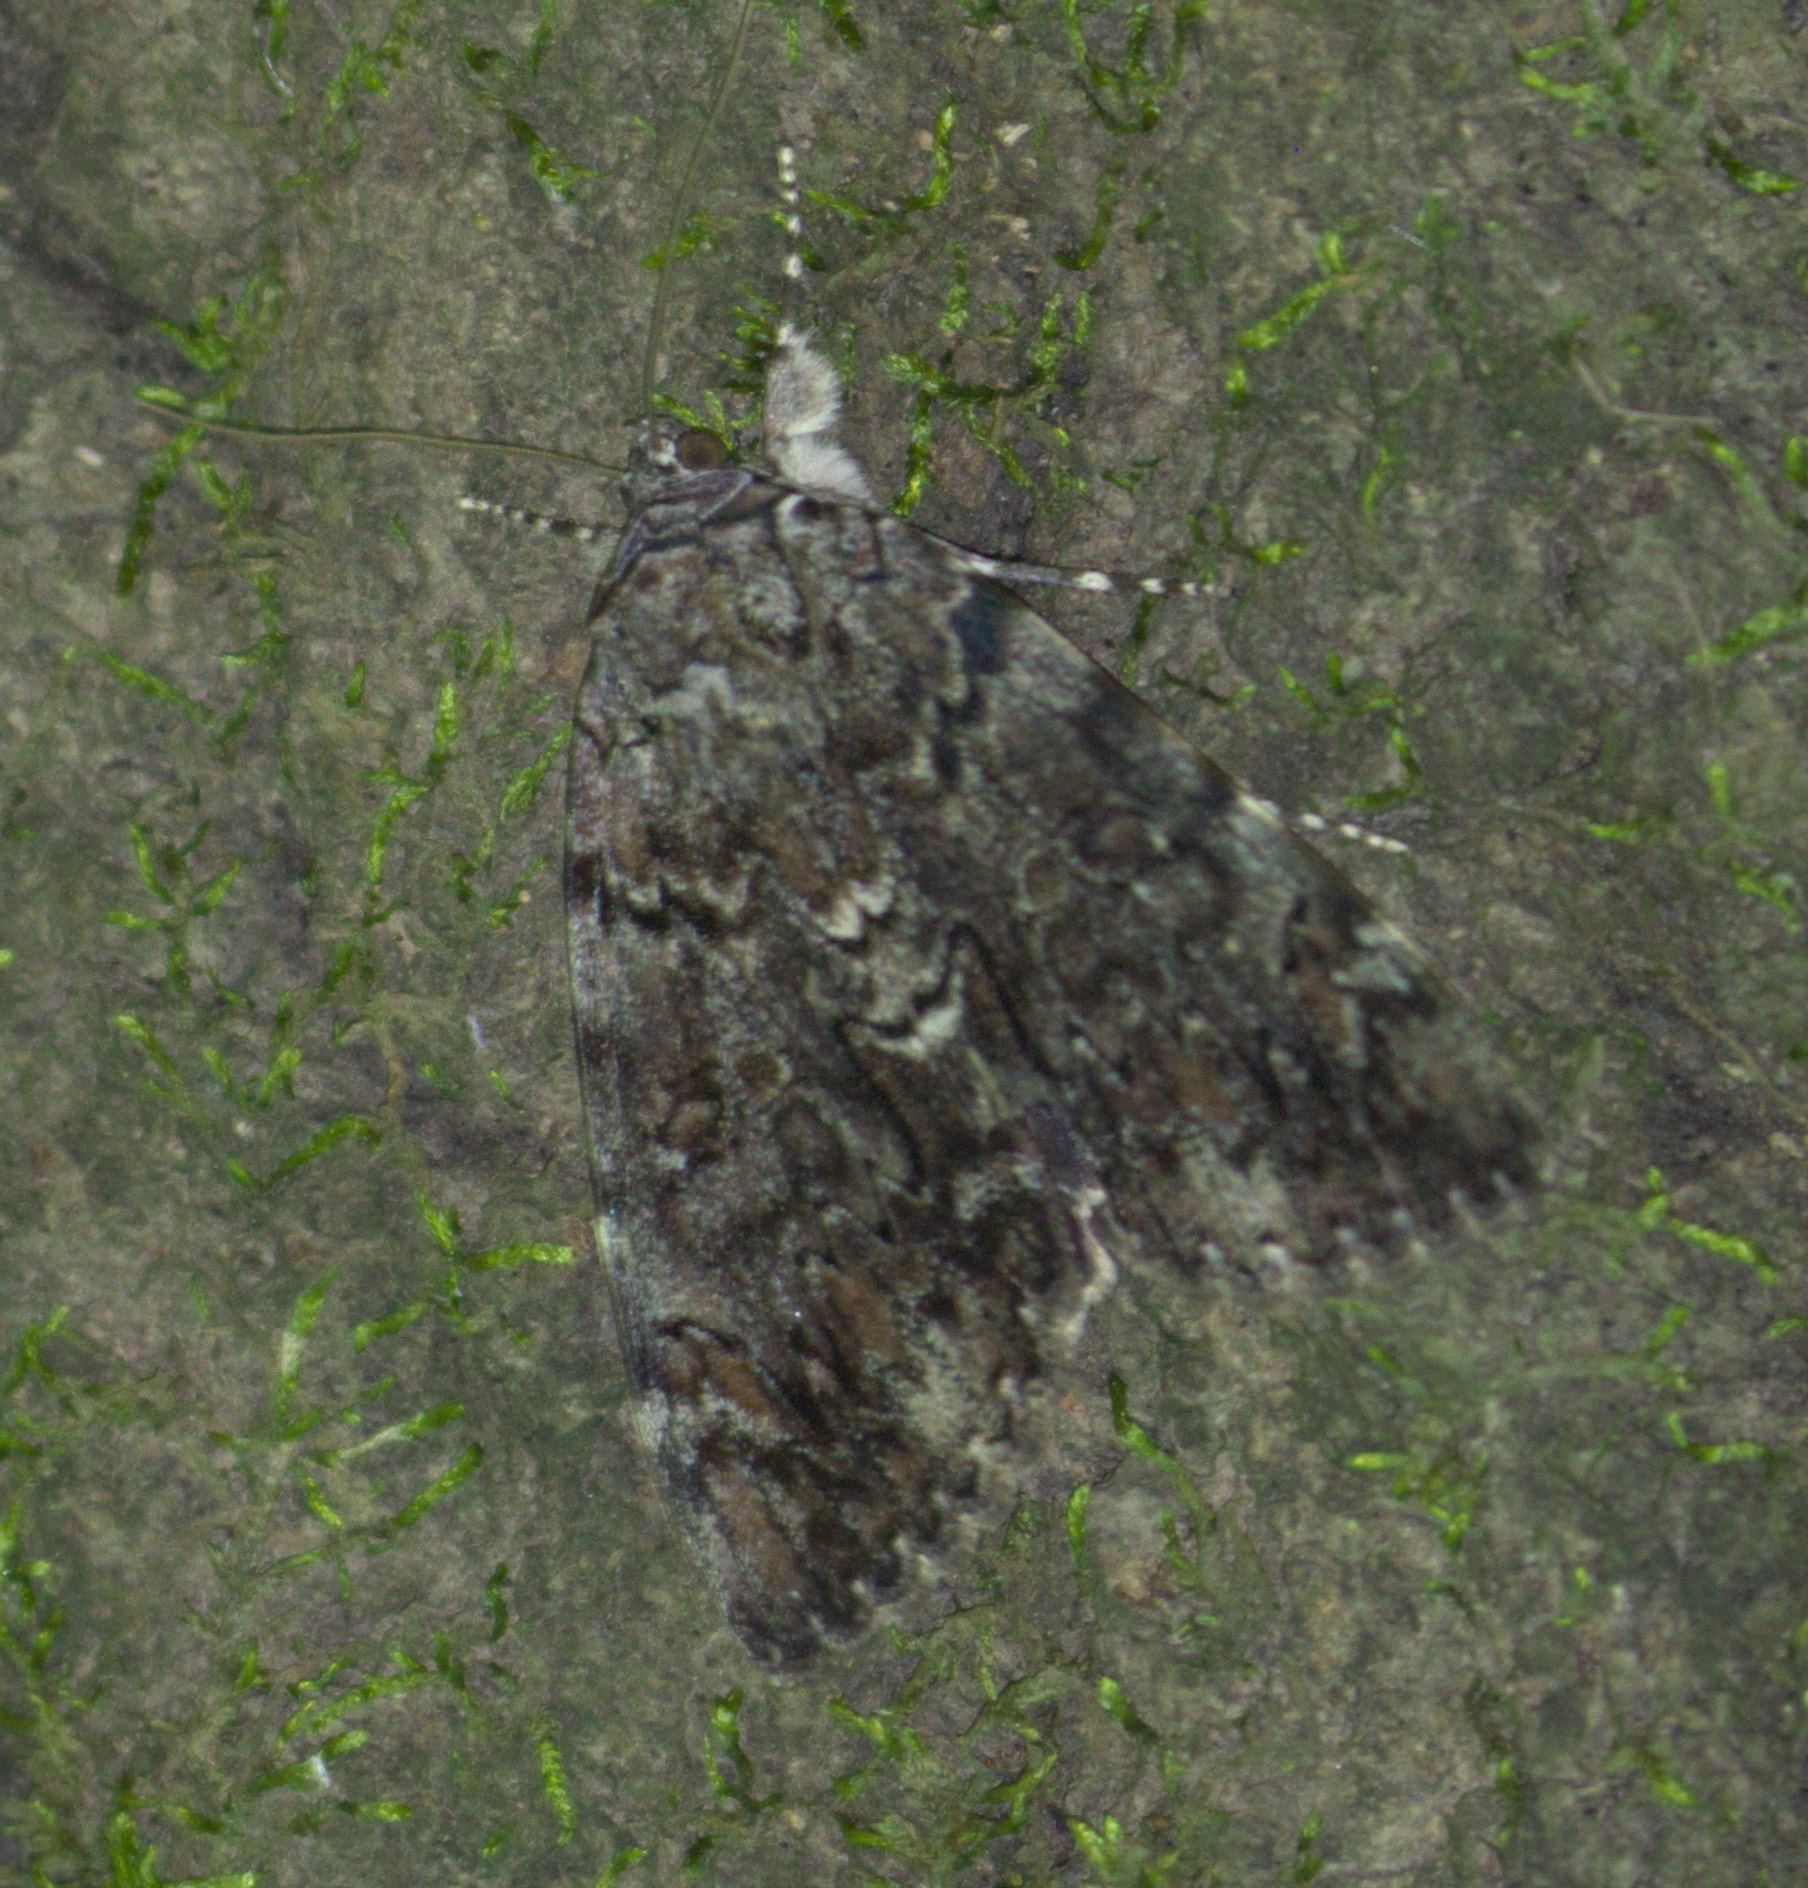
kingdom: Animalia
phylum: Arthropoda
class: Insecta
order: Lepidoptera
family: Erebidae
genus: Catocala
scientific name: Catocala lacrymosa
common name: Tearful underwing
